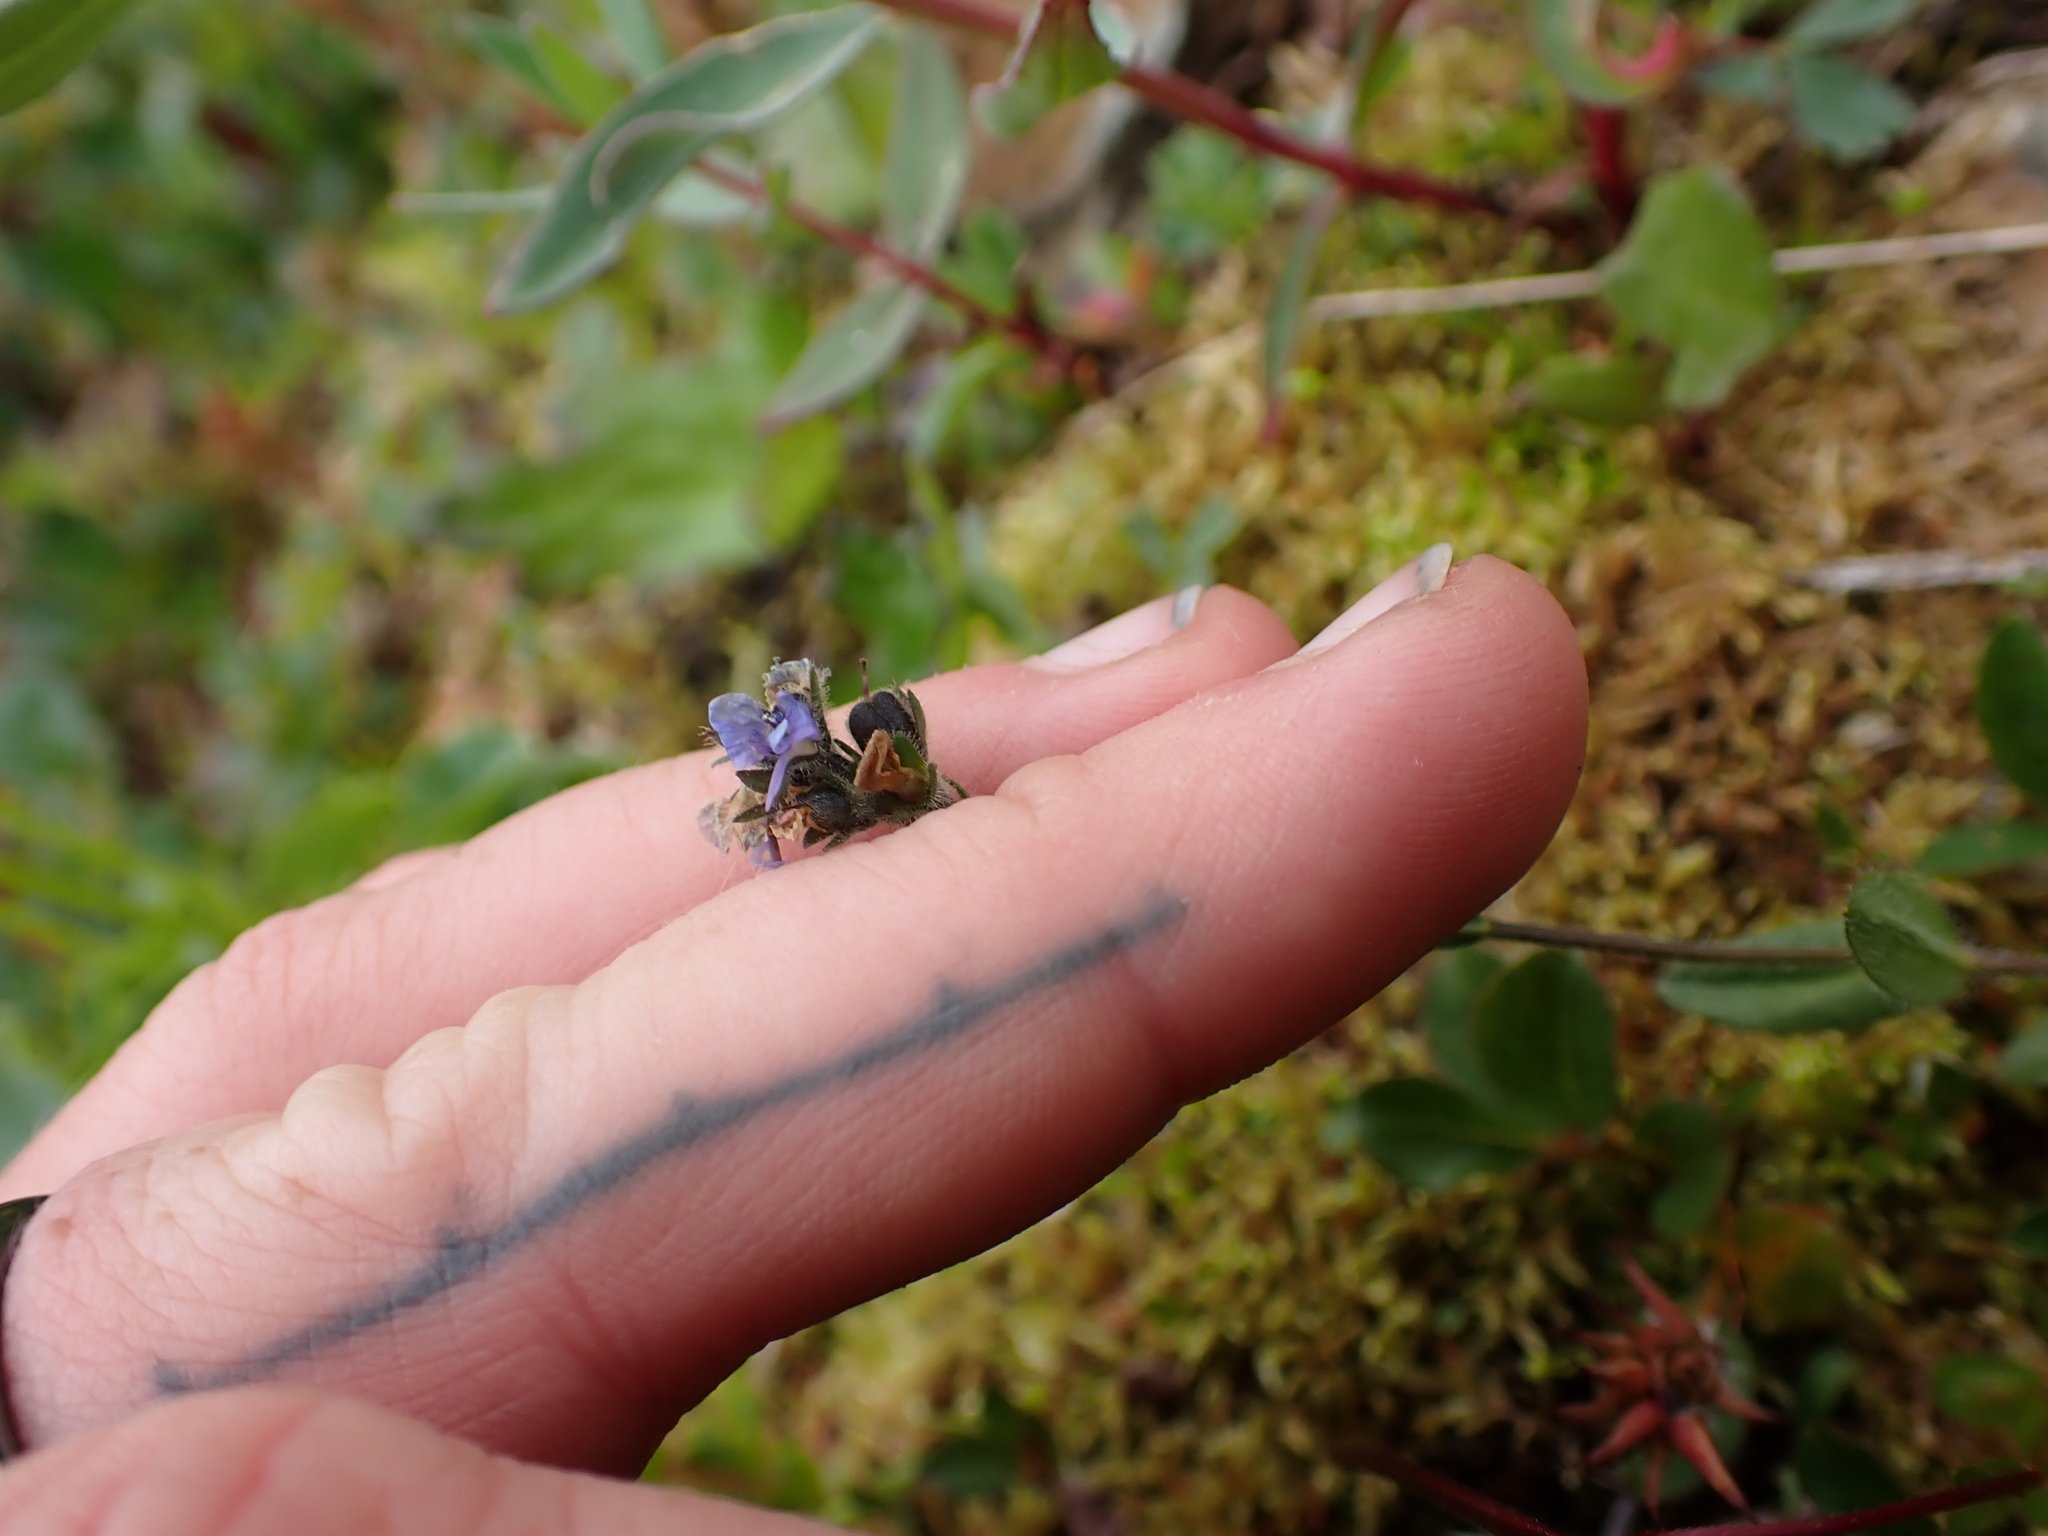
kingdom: Plantae
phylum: Tracheophyta
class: Magnoliopsida
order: Lamiales
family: Plantaginaceae
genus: Veronica
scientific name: Veronica wormskjoldii
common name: American alpine speedwell
